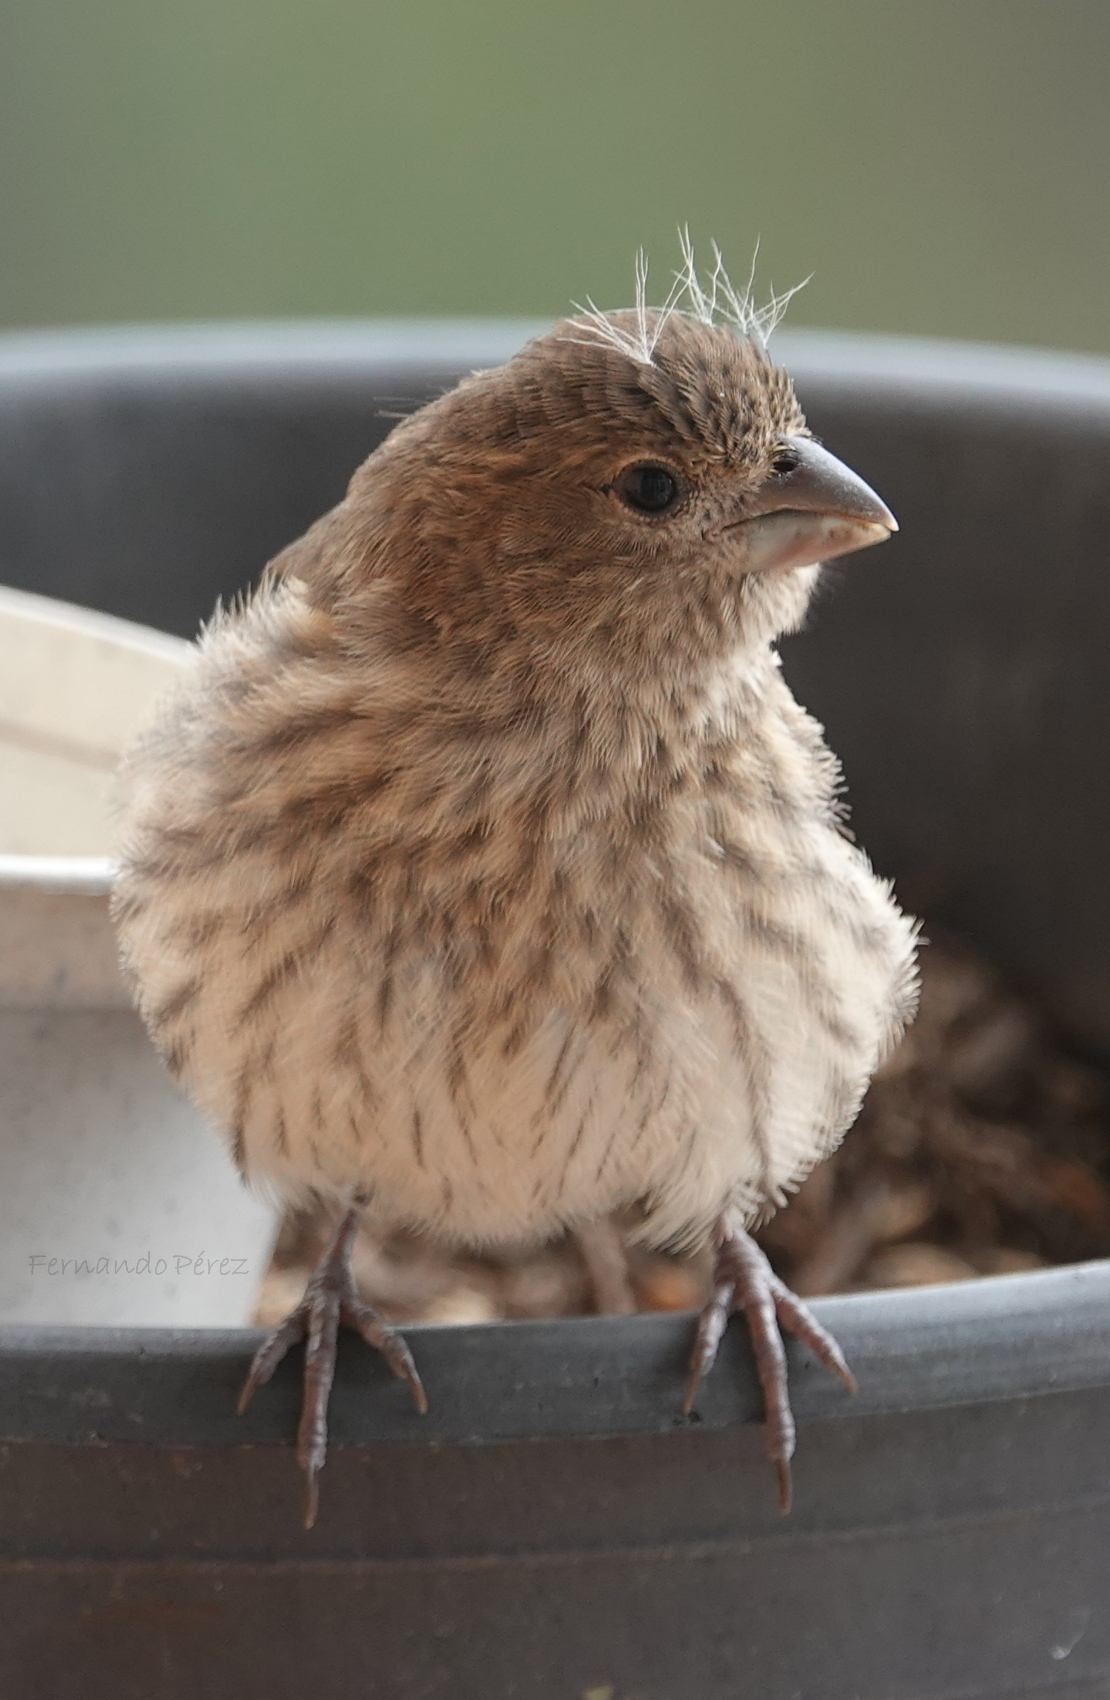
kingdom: Animalia
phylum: Chordata
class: Aves
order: Passeriformes
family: Fringillidae
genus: Haemorhous
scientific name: Haemorhous mexicanus
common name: House finch
